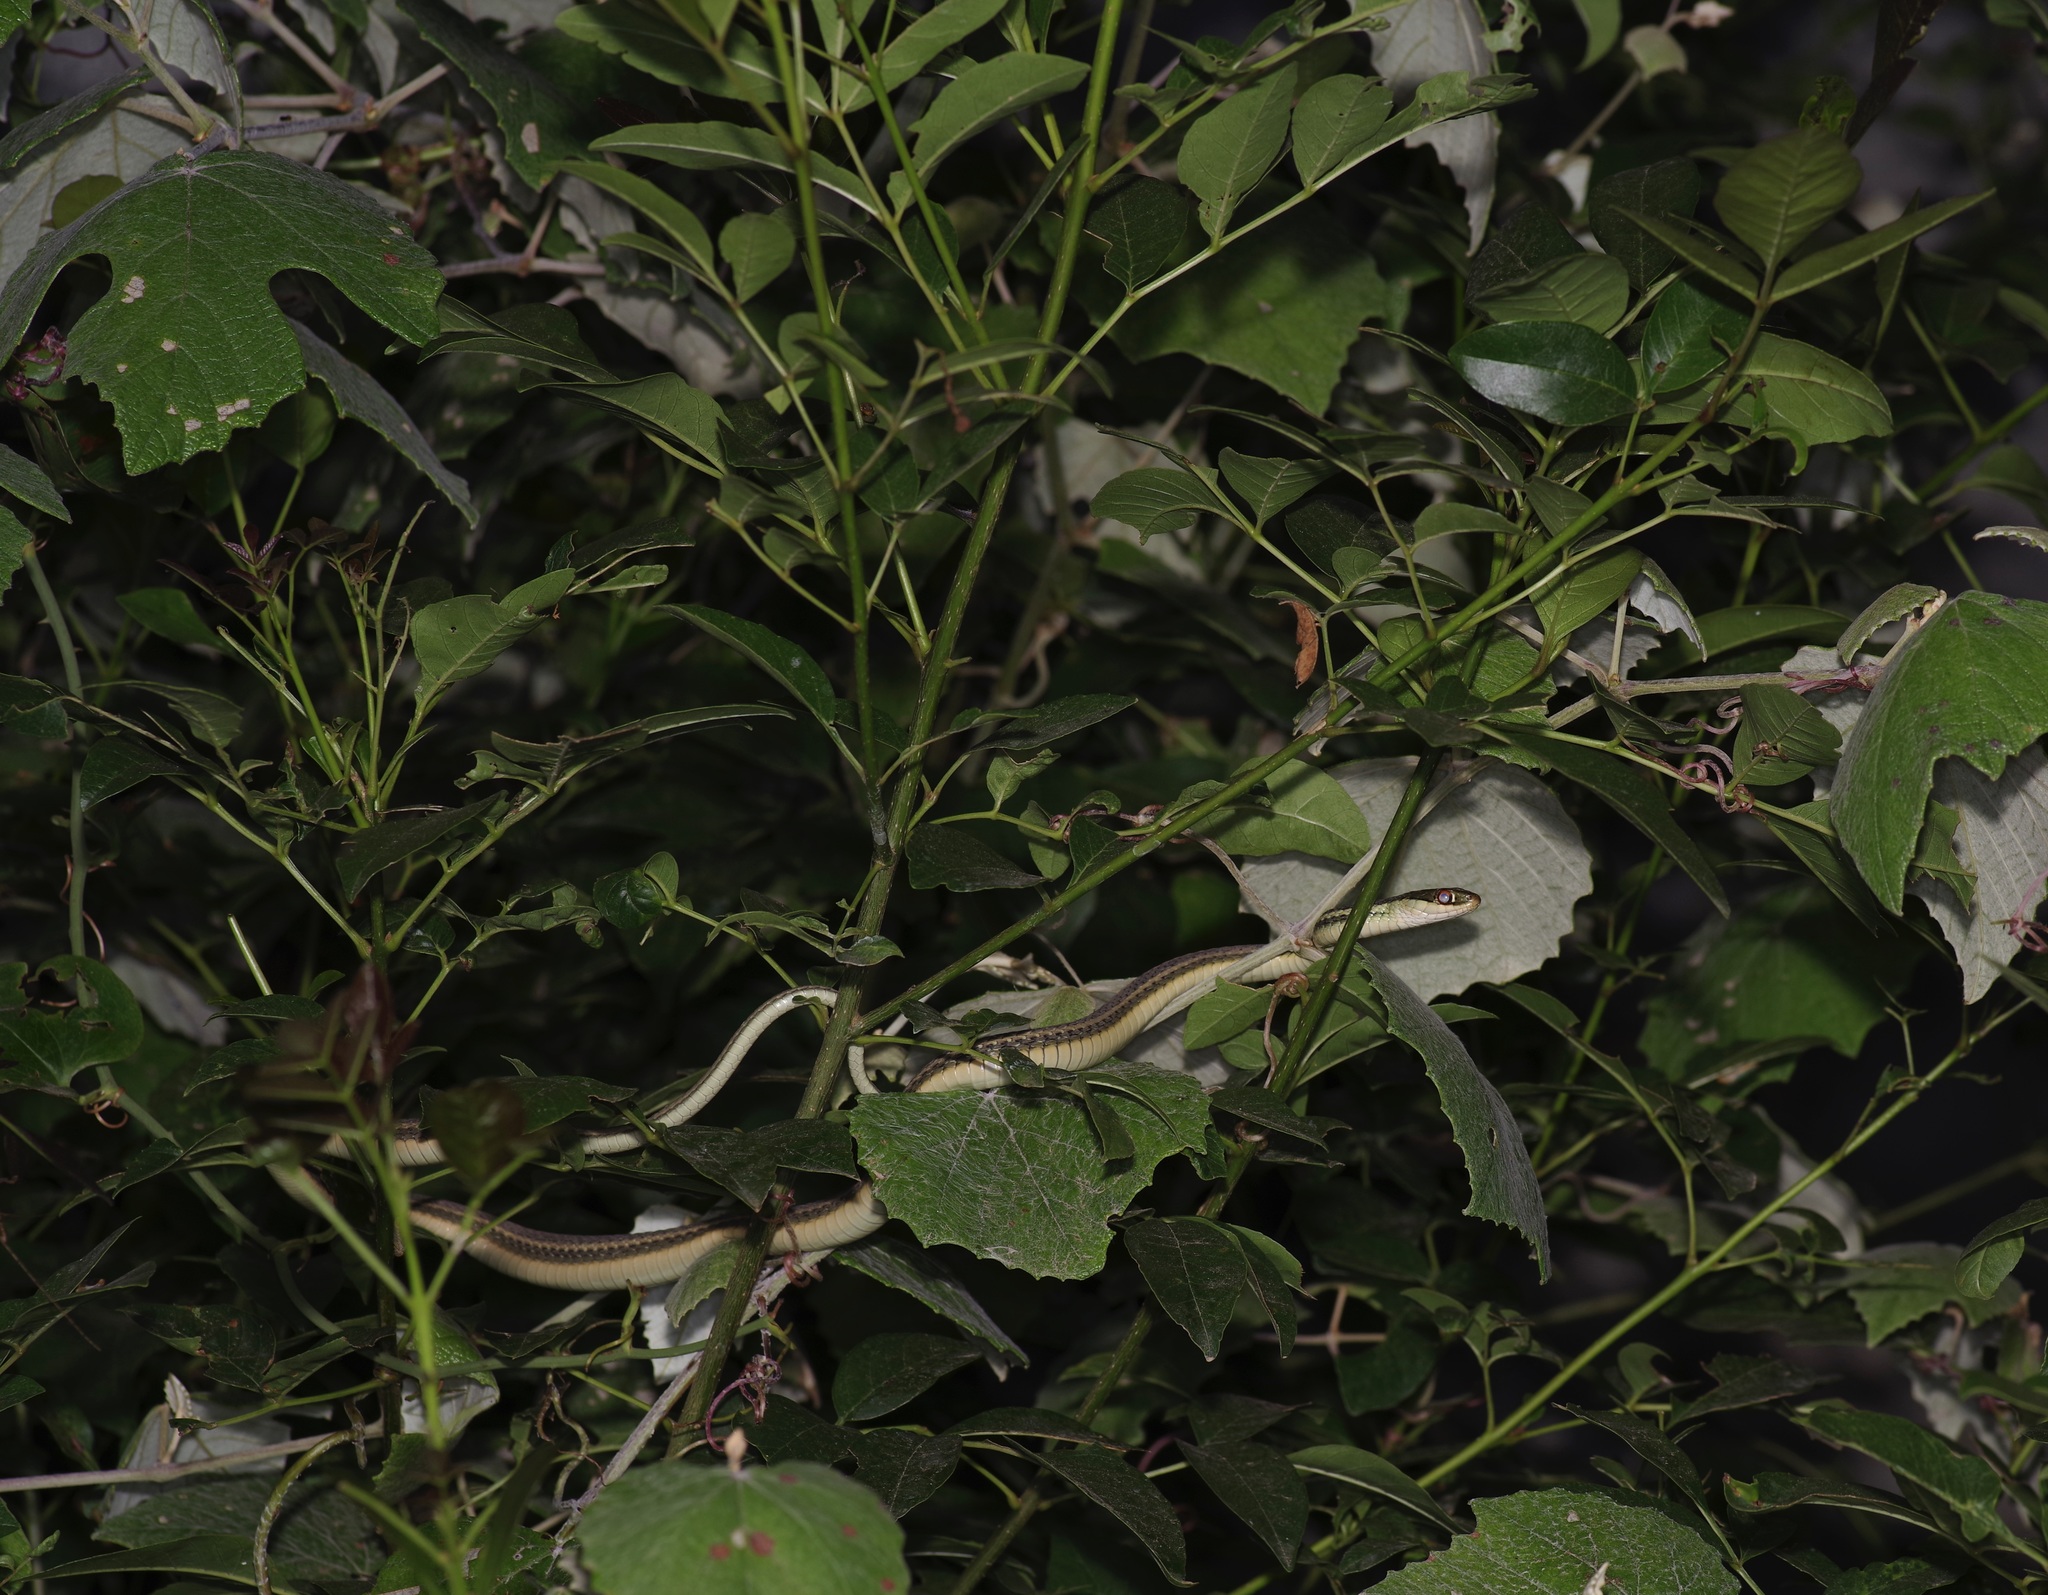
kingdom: Animalia
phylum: Chordata
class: Squamata
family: Colubridae
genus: Thamnophis
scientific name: Thamnophis proximus
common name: Western ribbon snake
